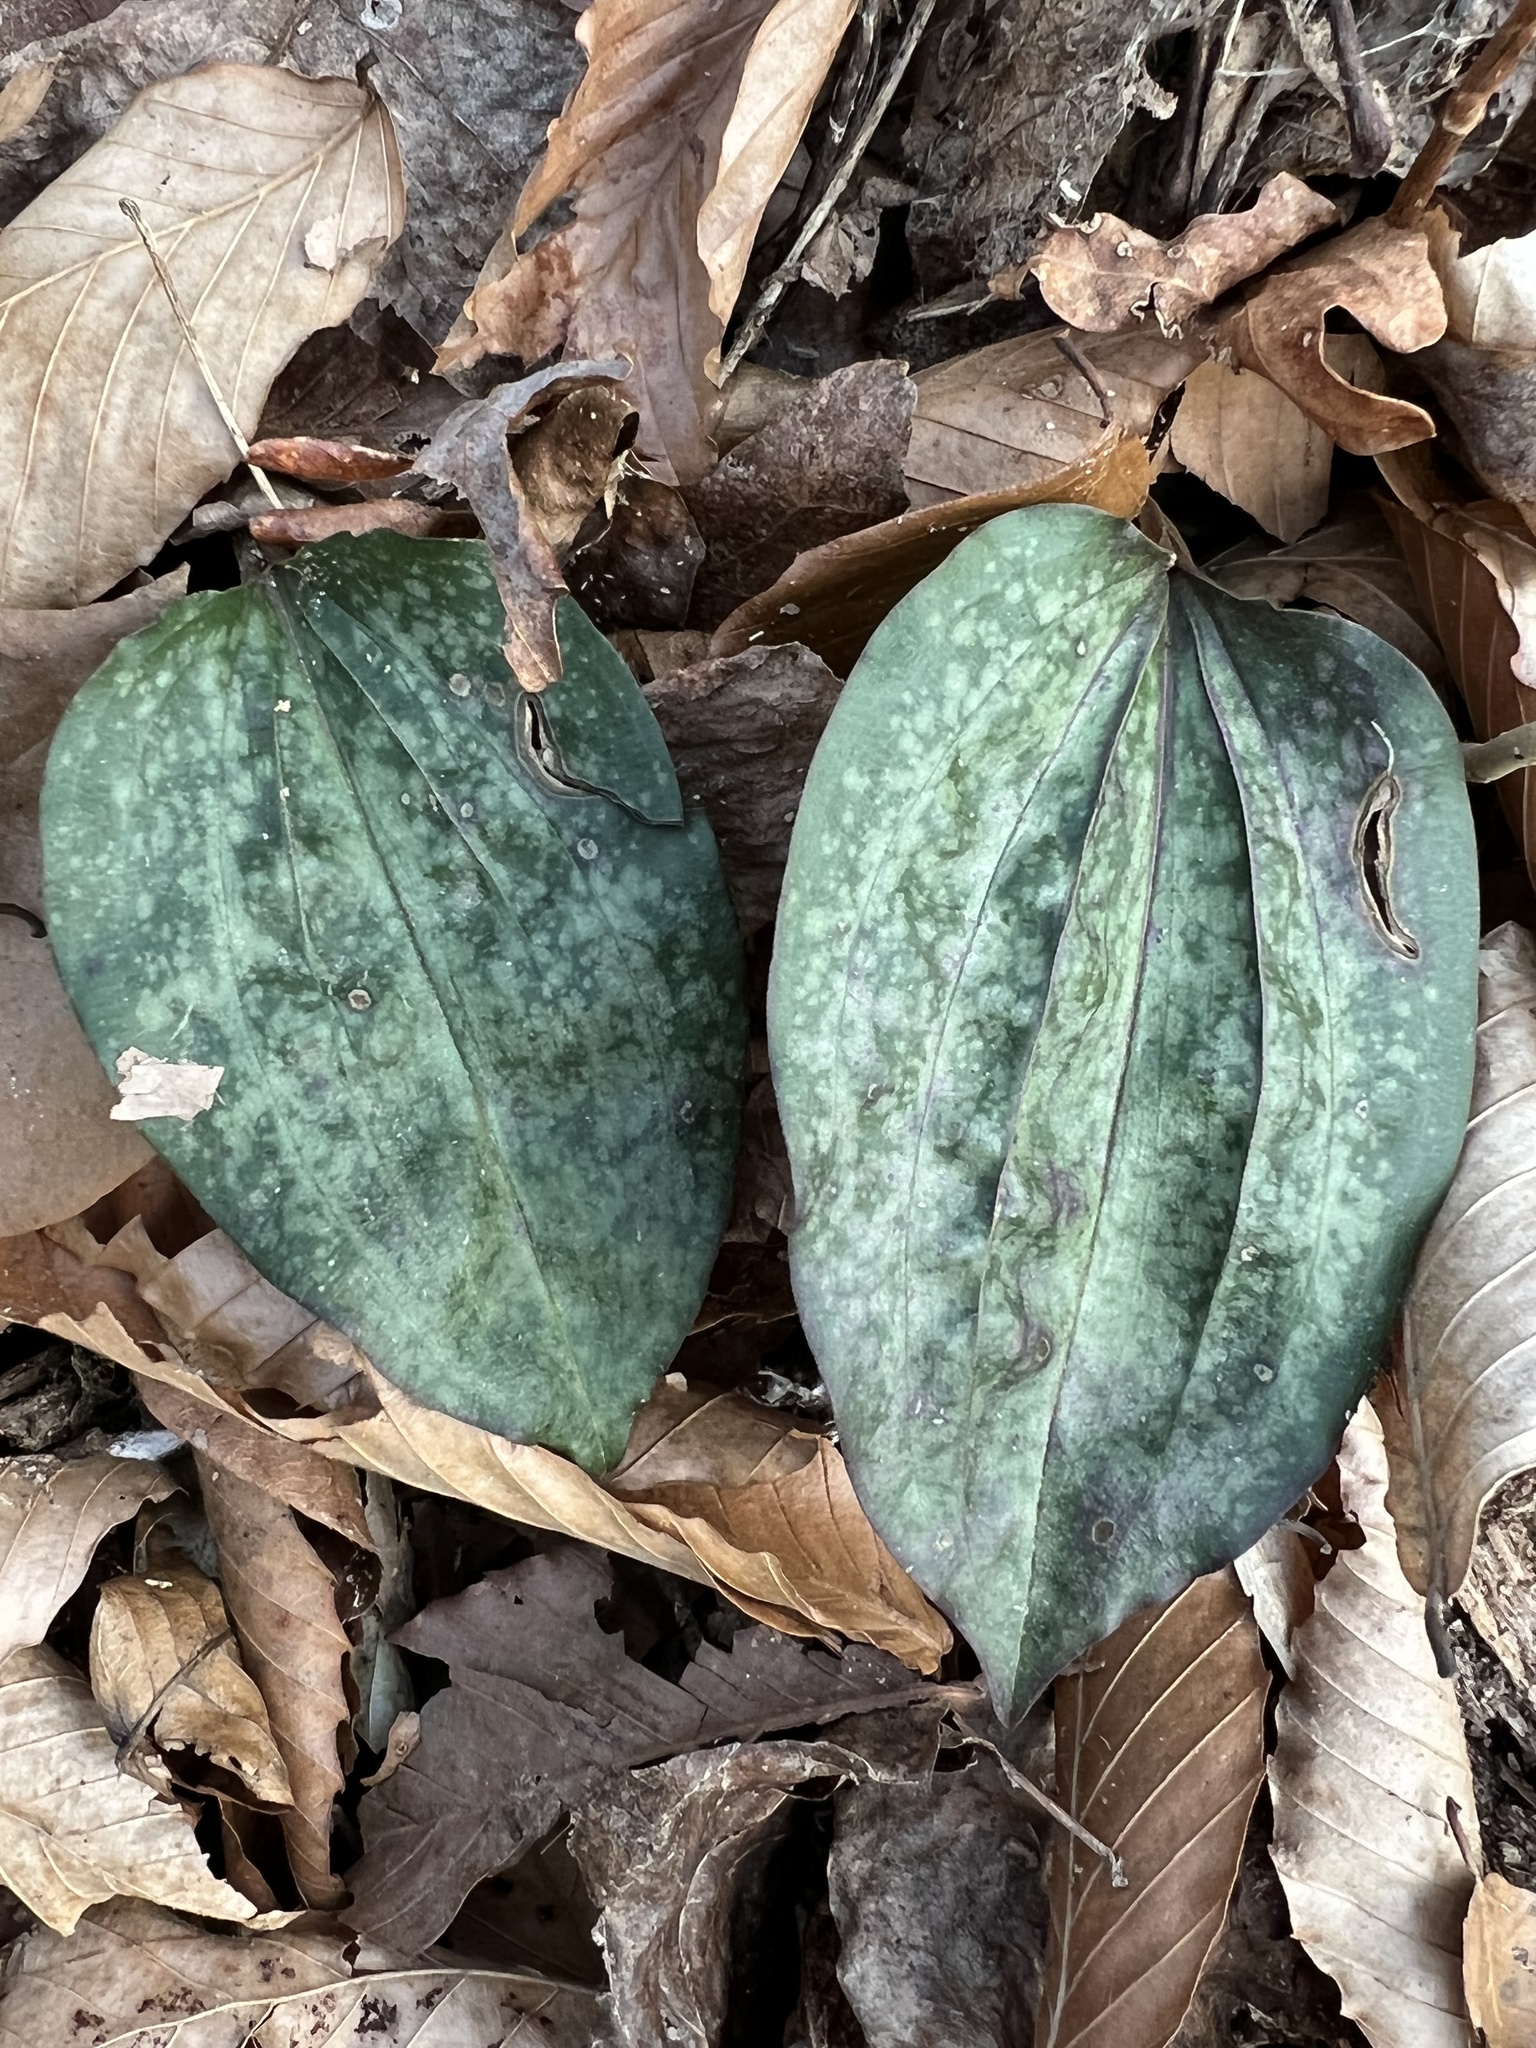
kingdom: Plantae
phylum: Tracheophyta
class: Liliopsida
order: Asparagales
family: Orchidaceae
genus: Tipularia
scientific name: Tipularia discolor
